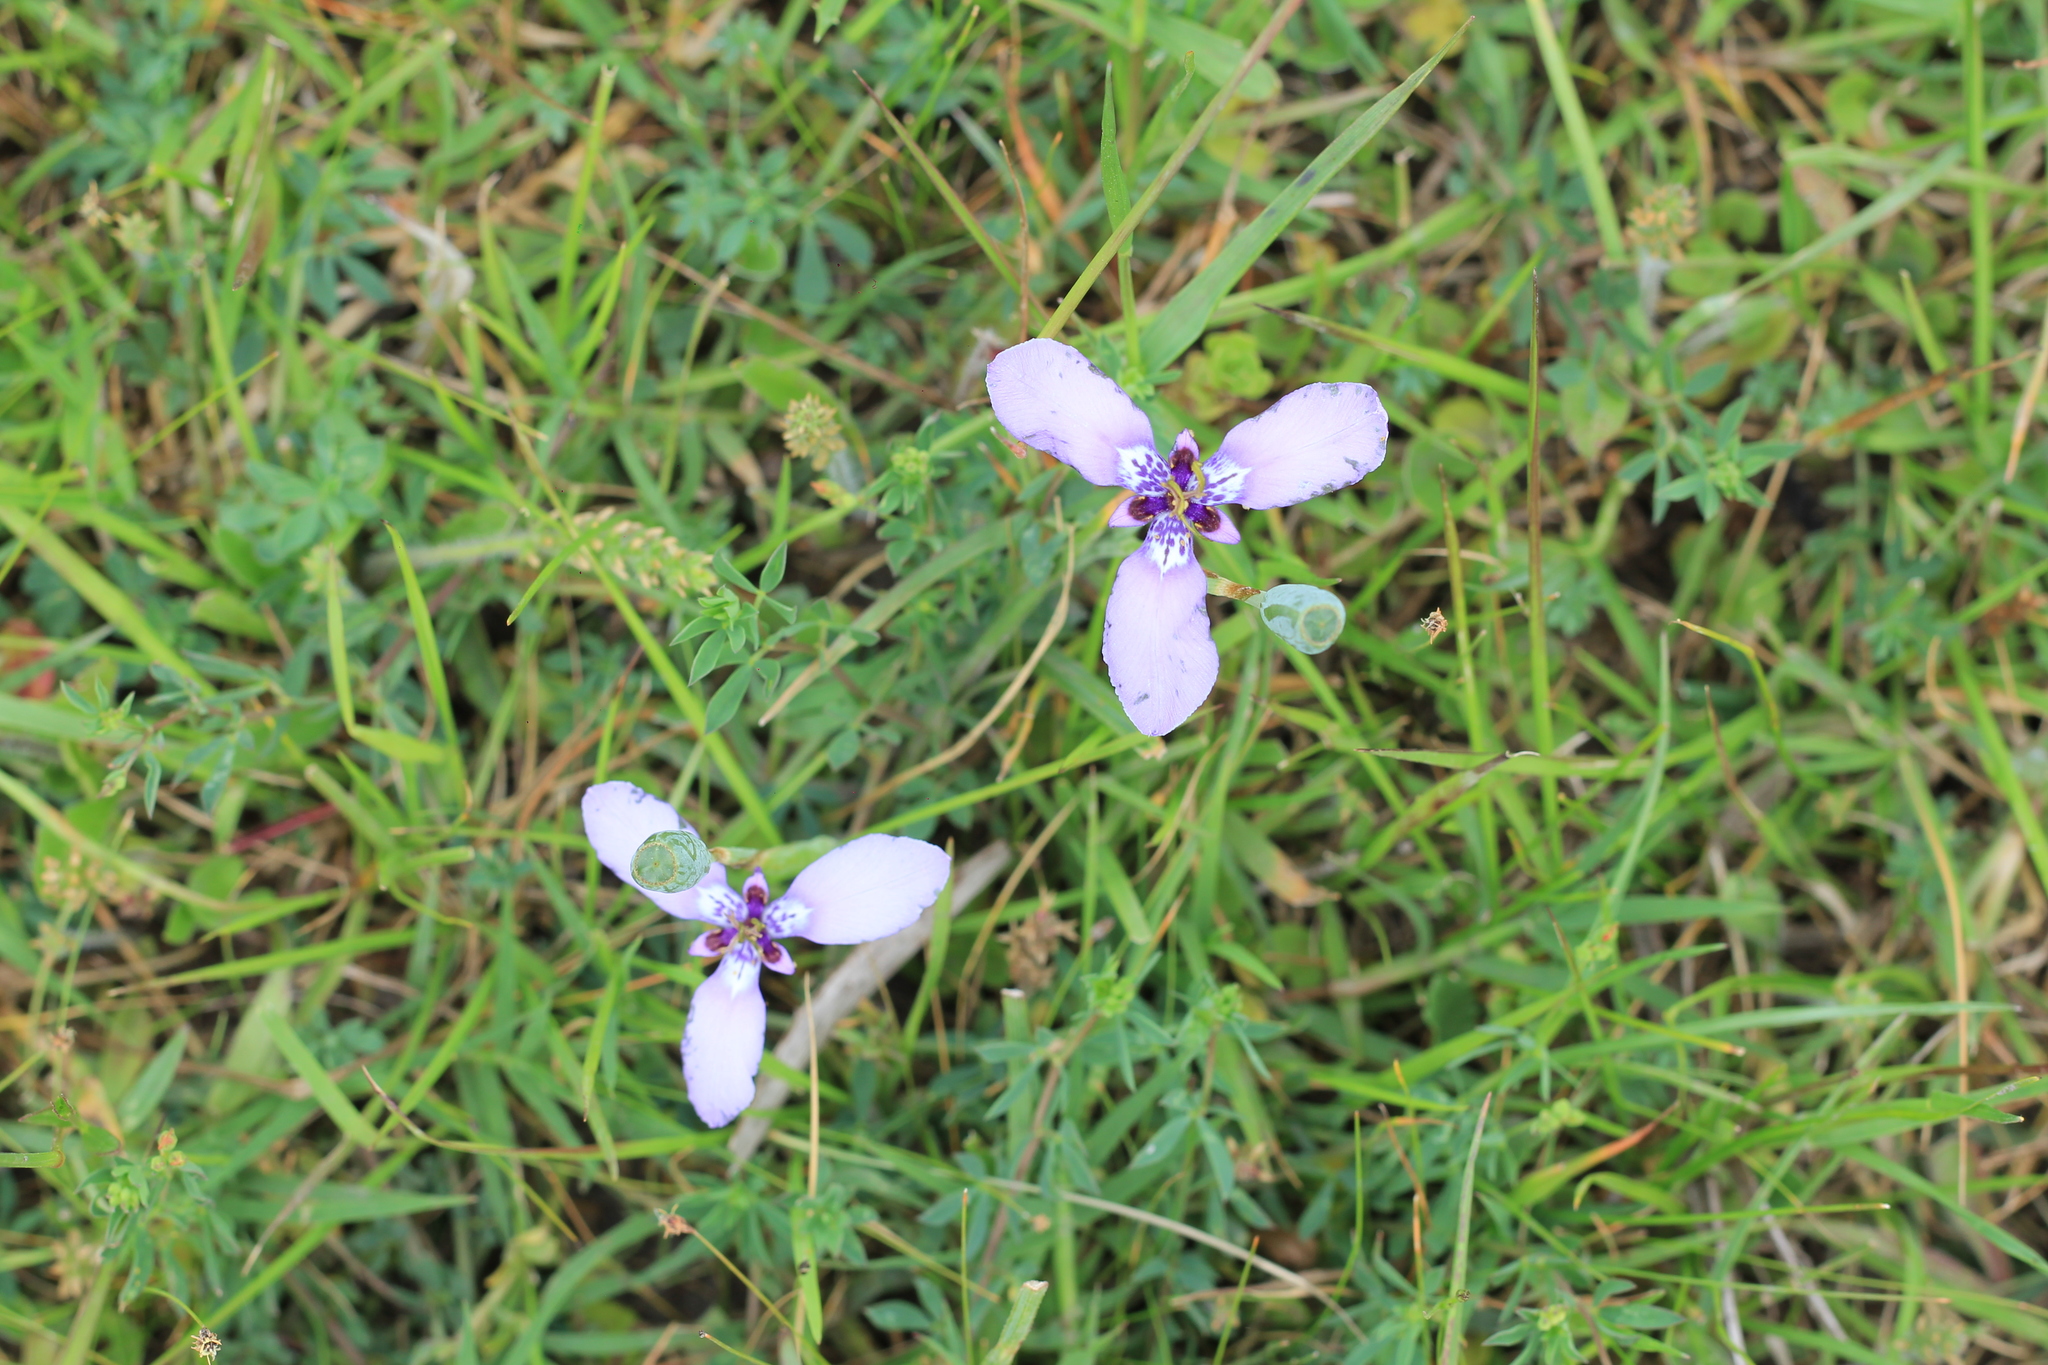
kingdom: Plantae
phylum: Tracheophyta
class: Liliopsida
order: Asparagales
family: Iridaceae
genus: Herbertia
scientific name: Herbertia lahue
